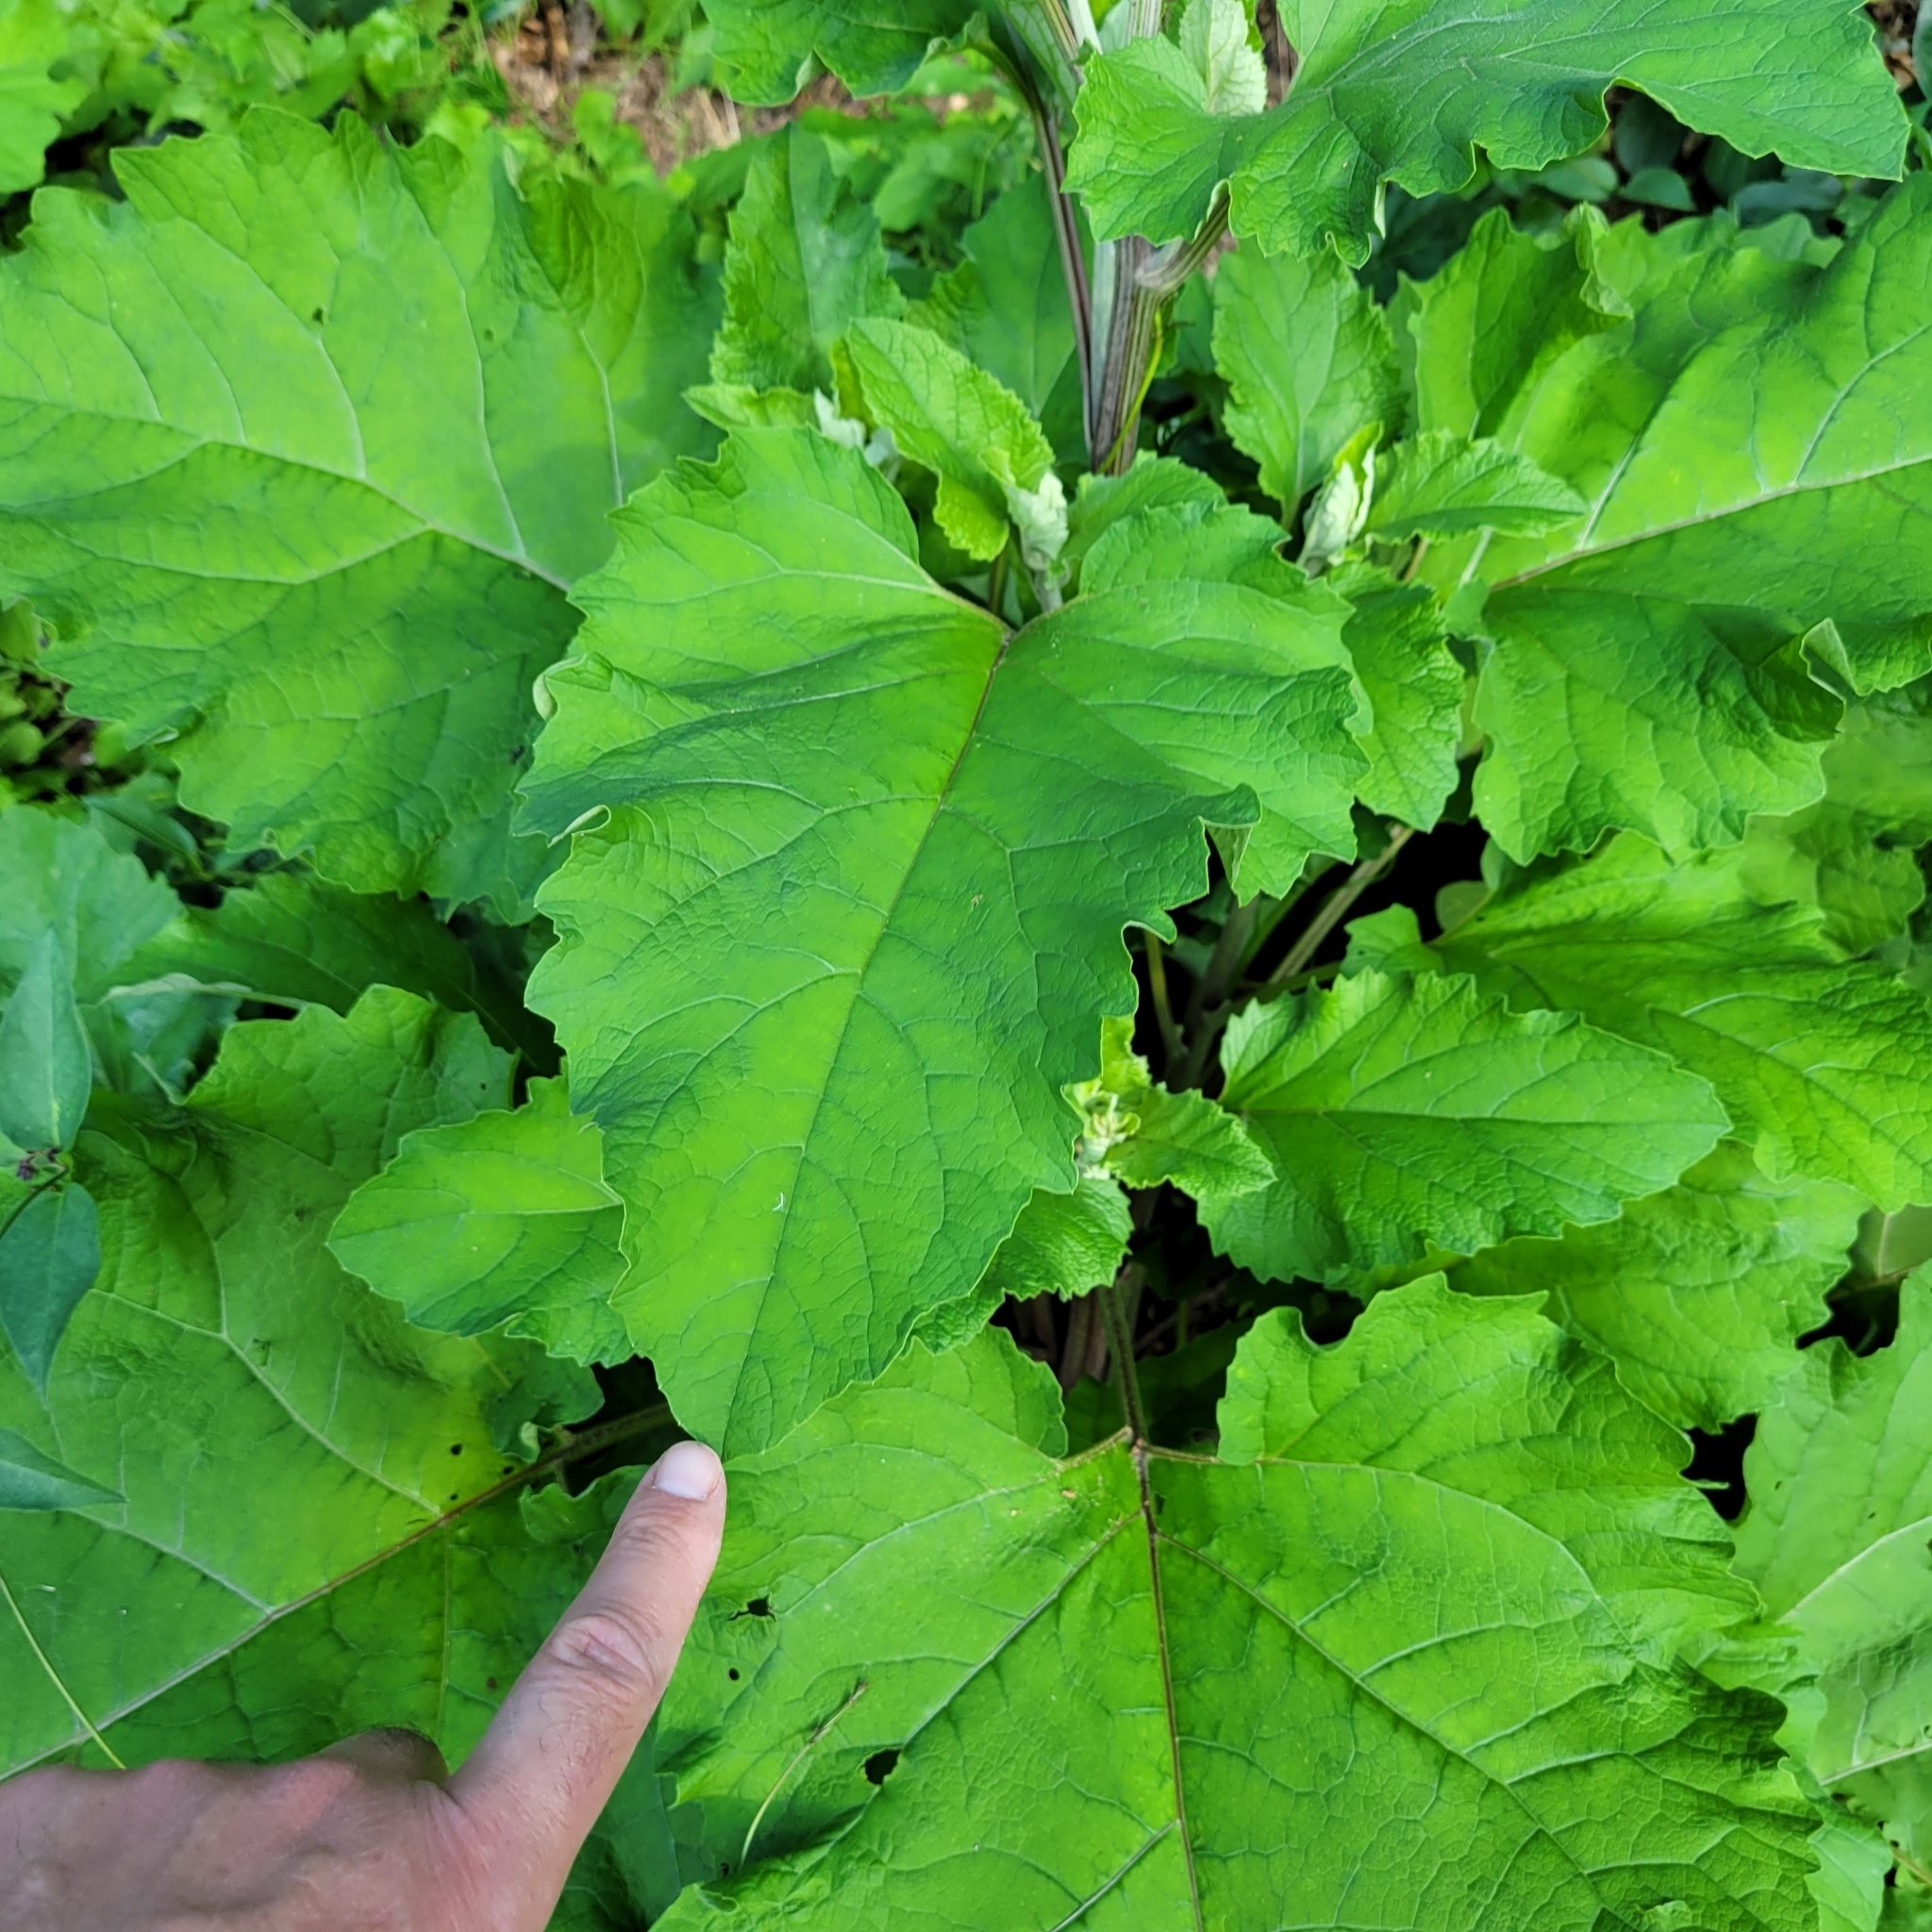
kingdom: Plantae
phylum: Tracheophyta
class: Magnoliopsida
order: Asterales
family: Asteraceae
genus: Arctium
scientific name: Arctium
